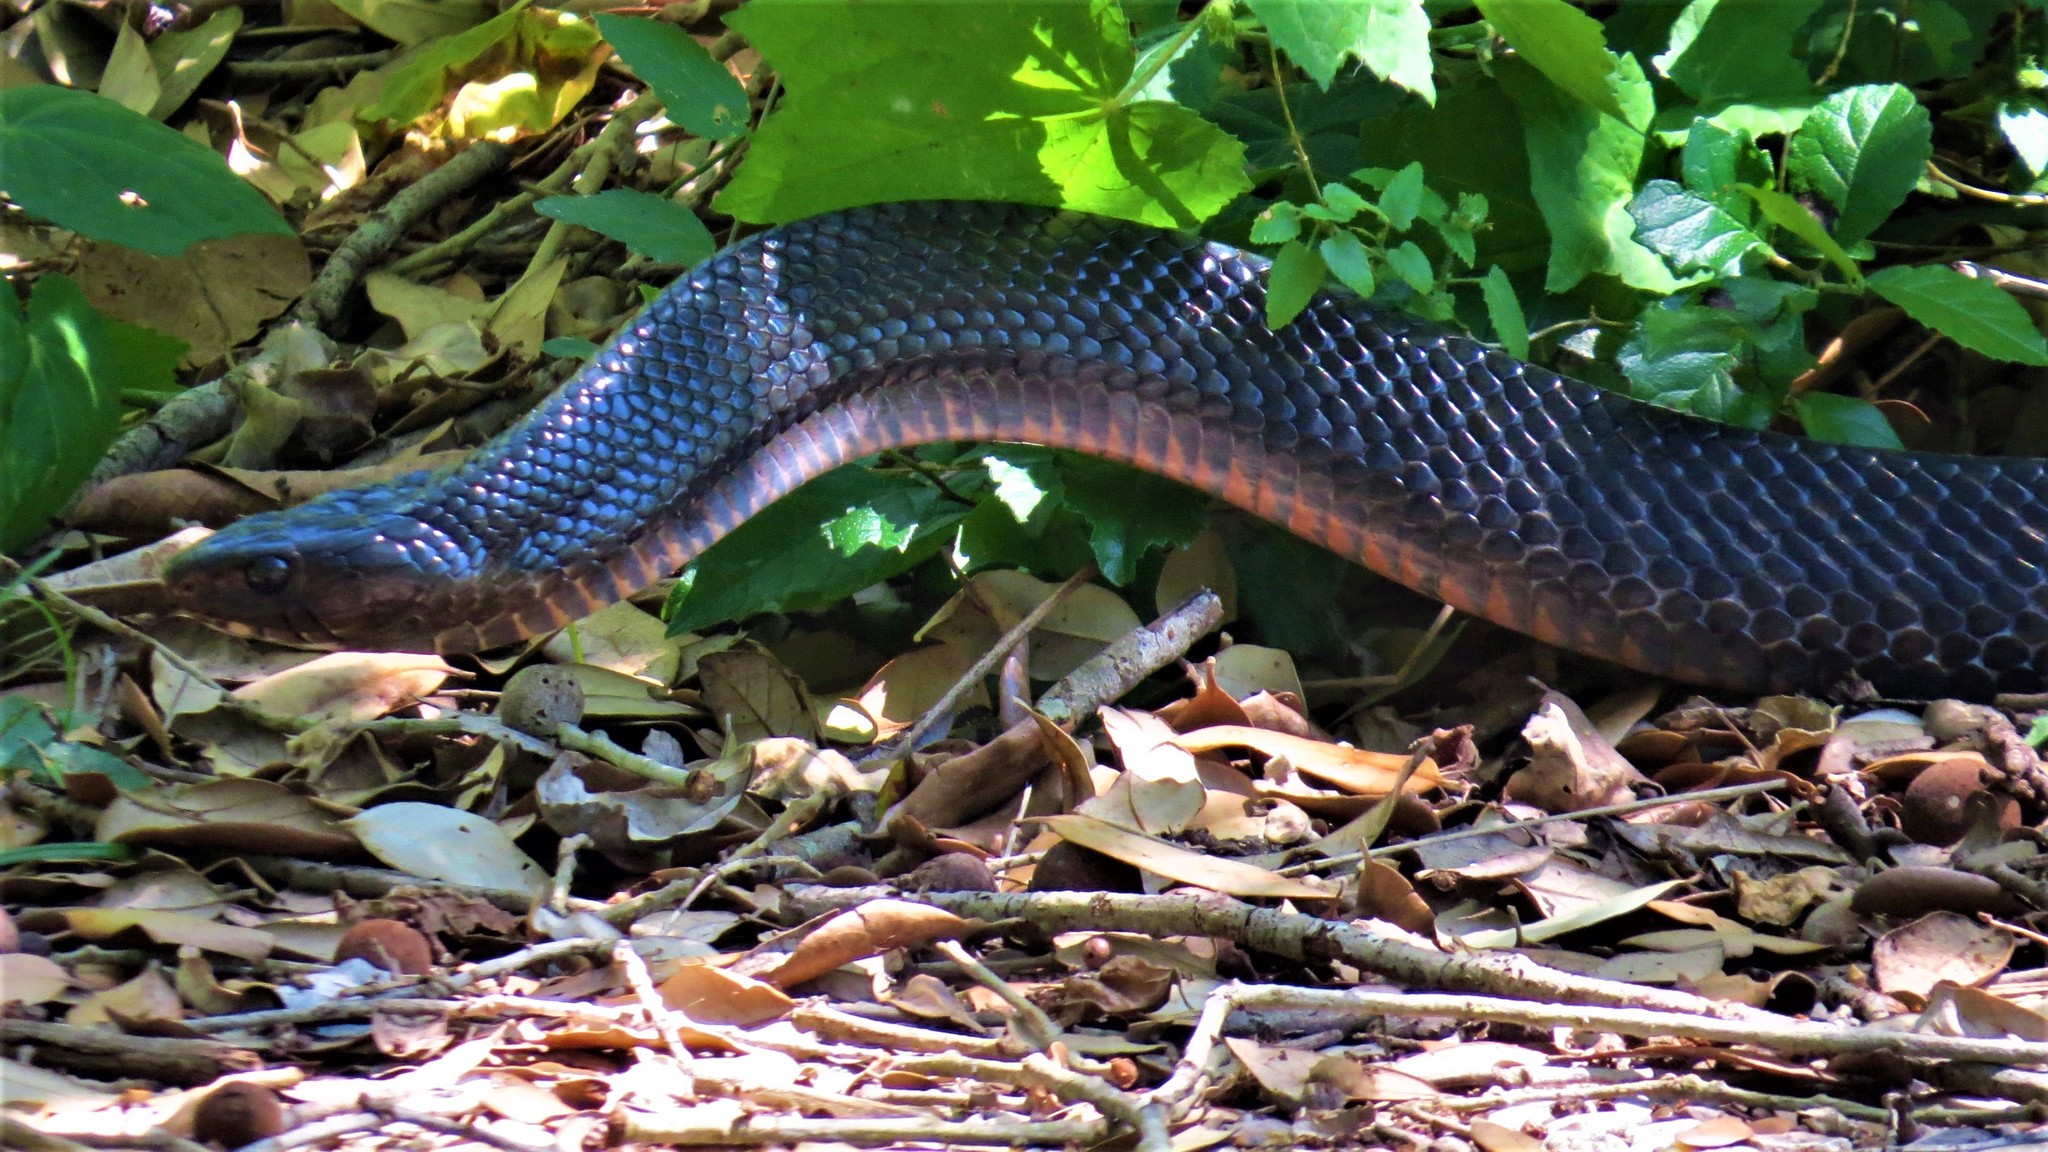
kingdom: Animalia
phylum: Chordata
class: Squamata
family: Colubridae
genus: Drymarchon
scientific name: Drymarchon melanurus
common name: Central american indigo snake
